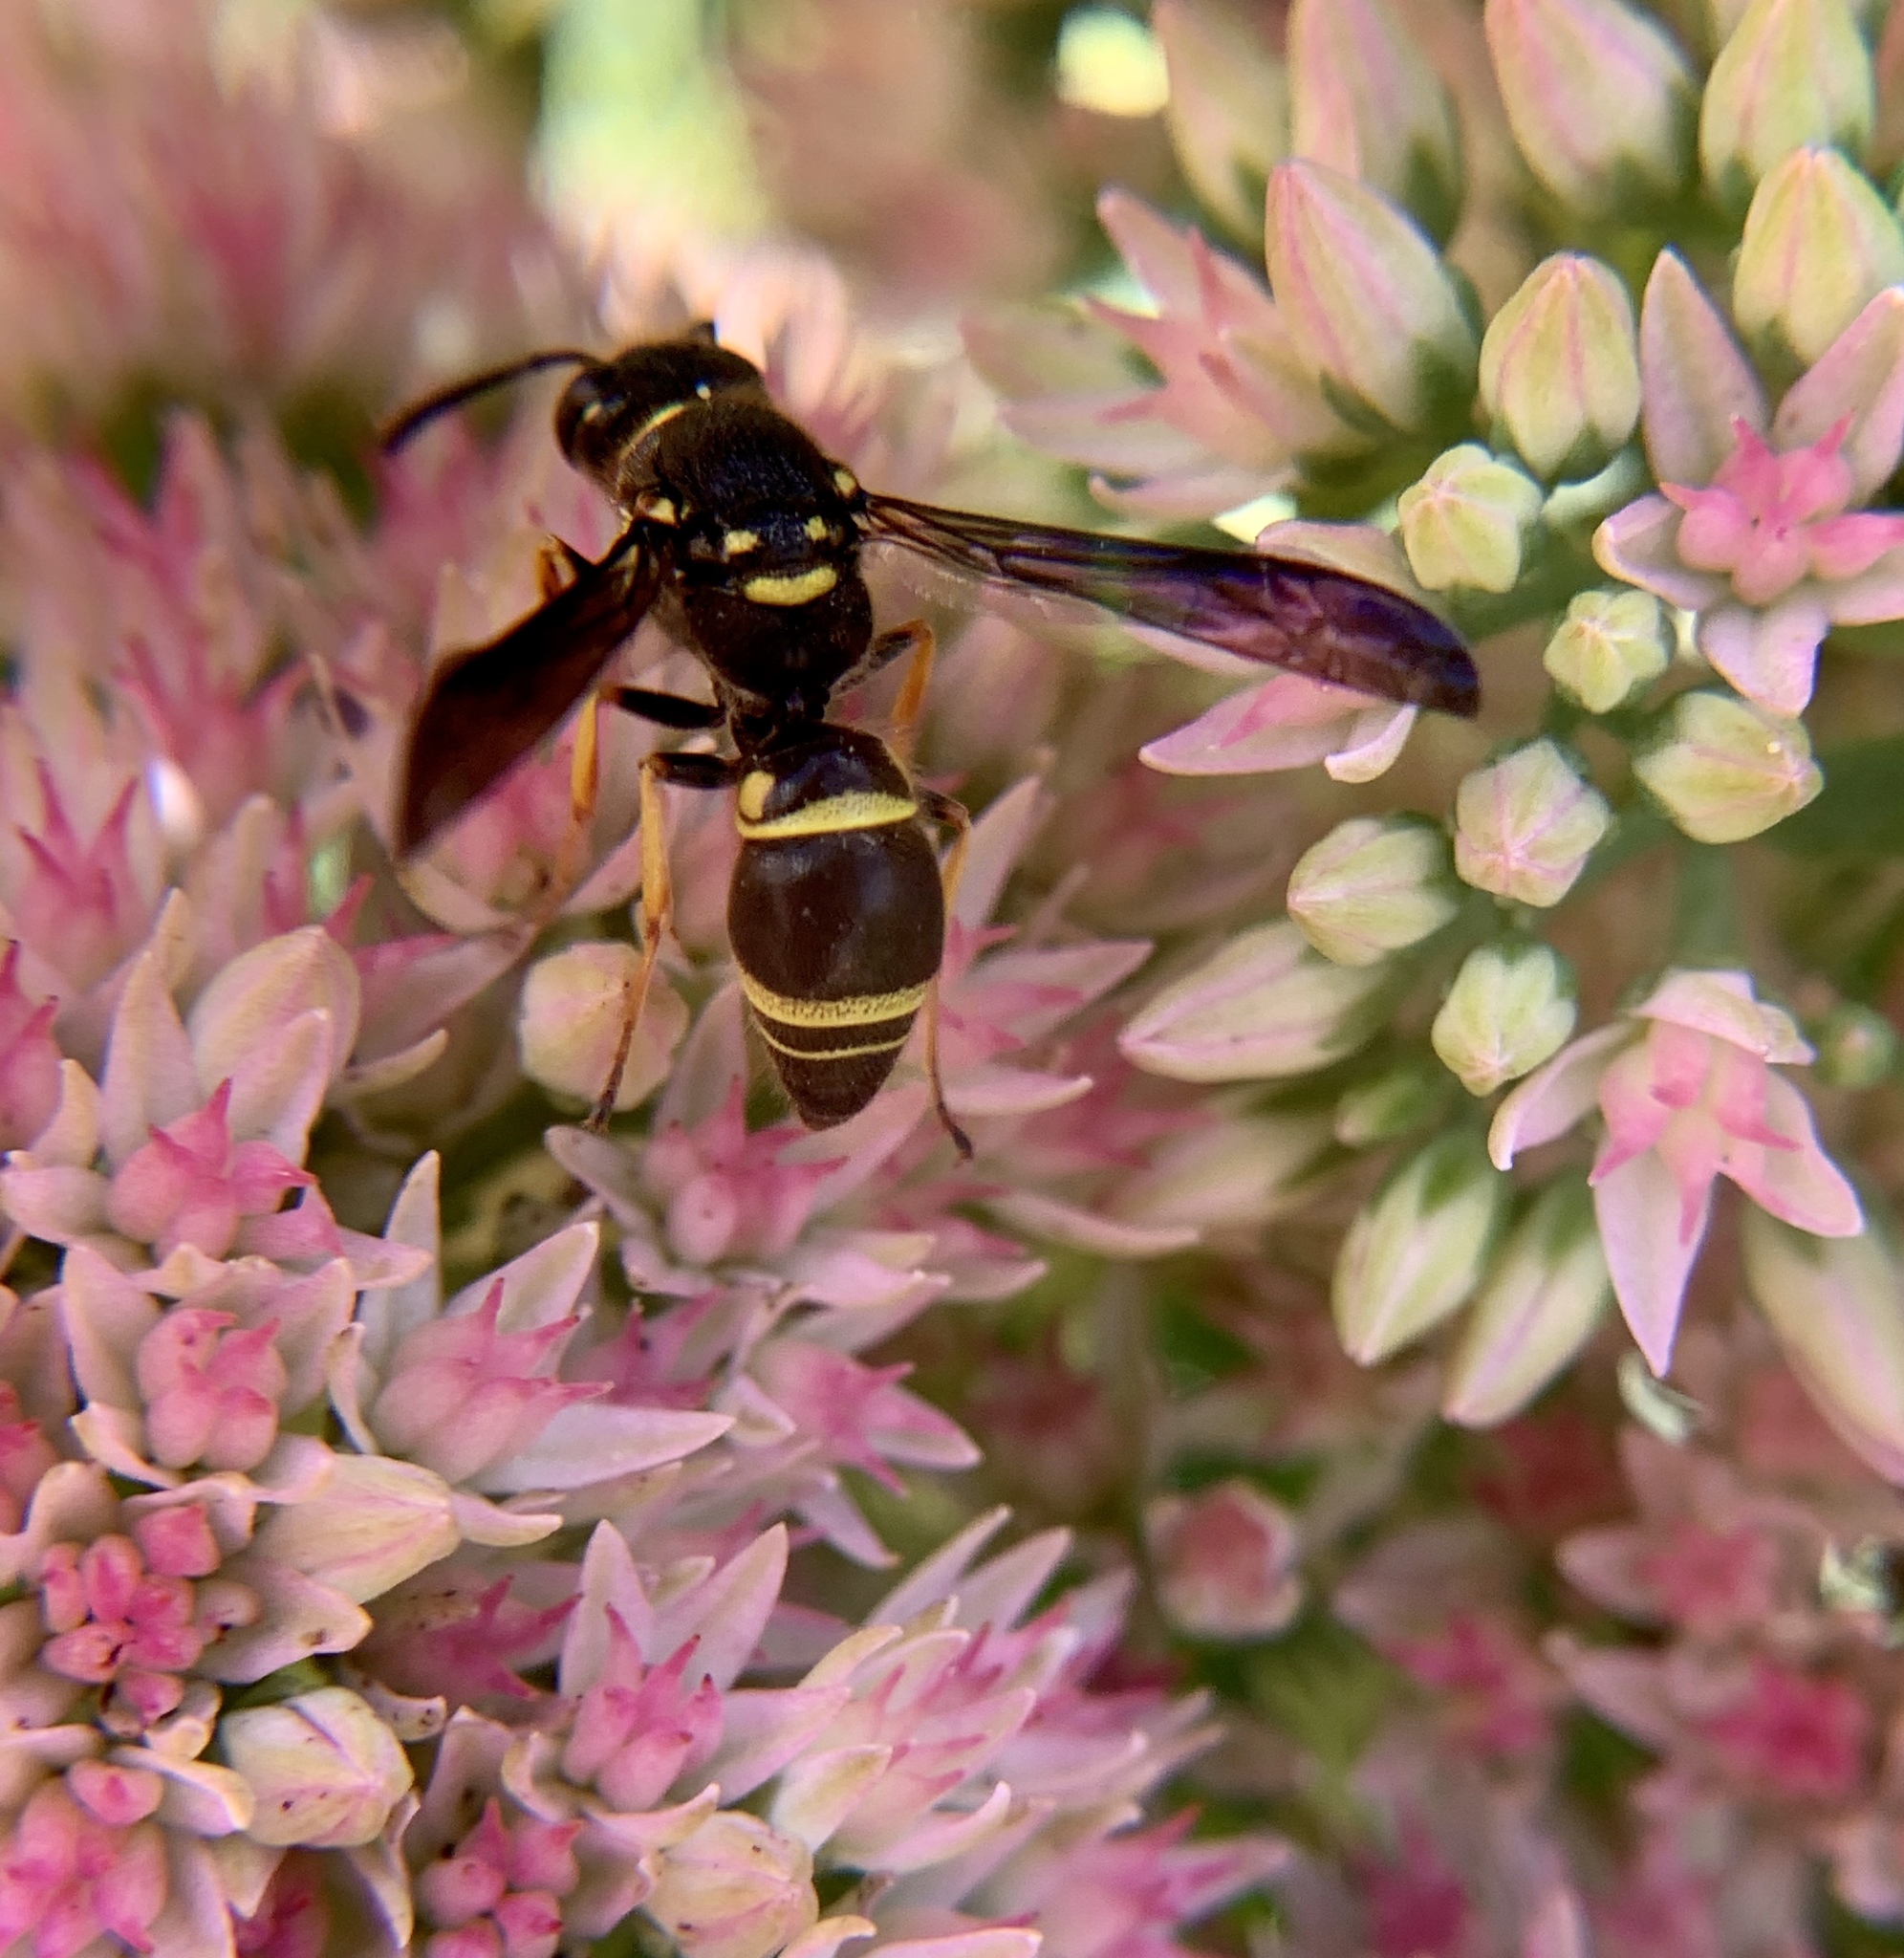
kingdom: Animalia
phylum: Arthropoda
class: Insecta
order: Hymenoptera
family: Vespidae
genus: Ancistrocerus
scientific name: Ancistrocerus campestris
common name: Smiling mason wasp
